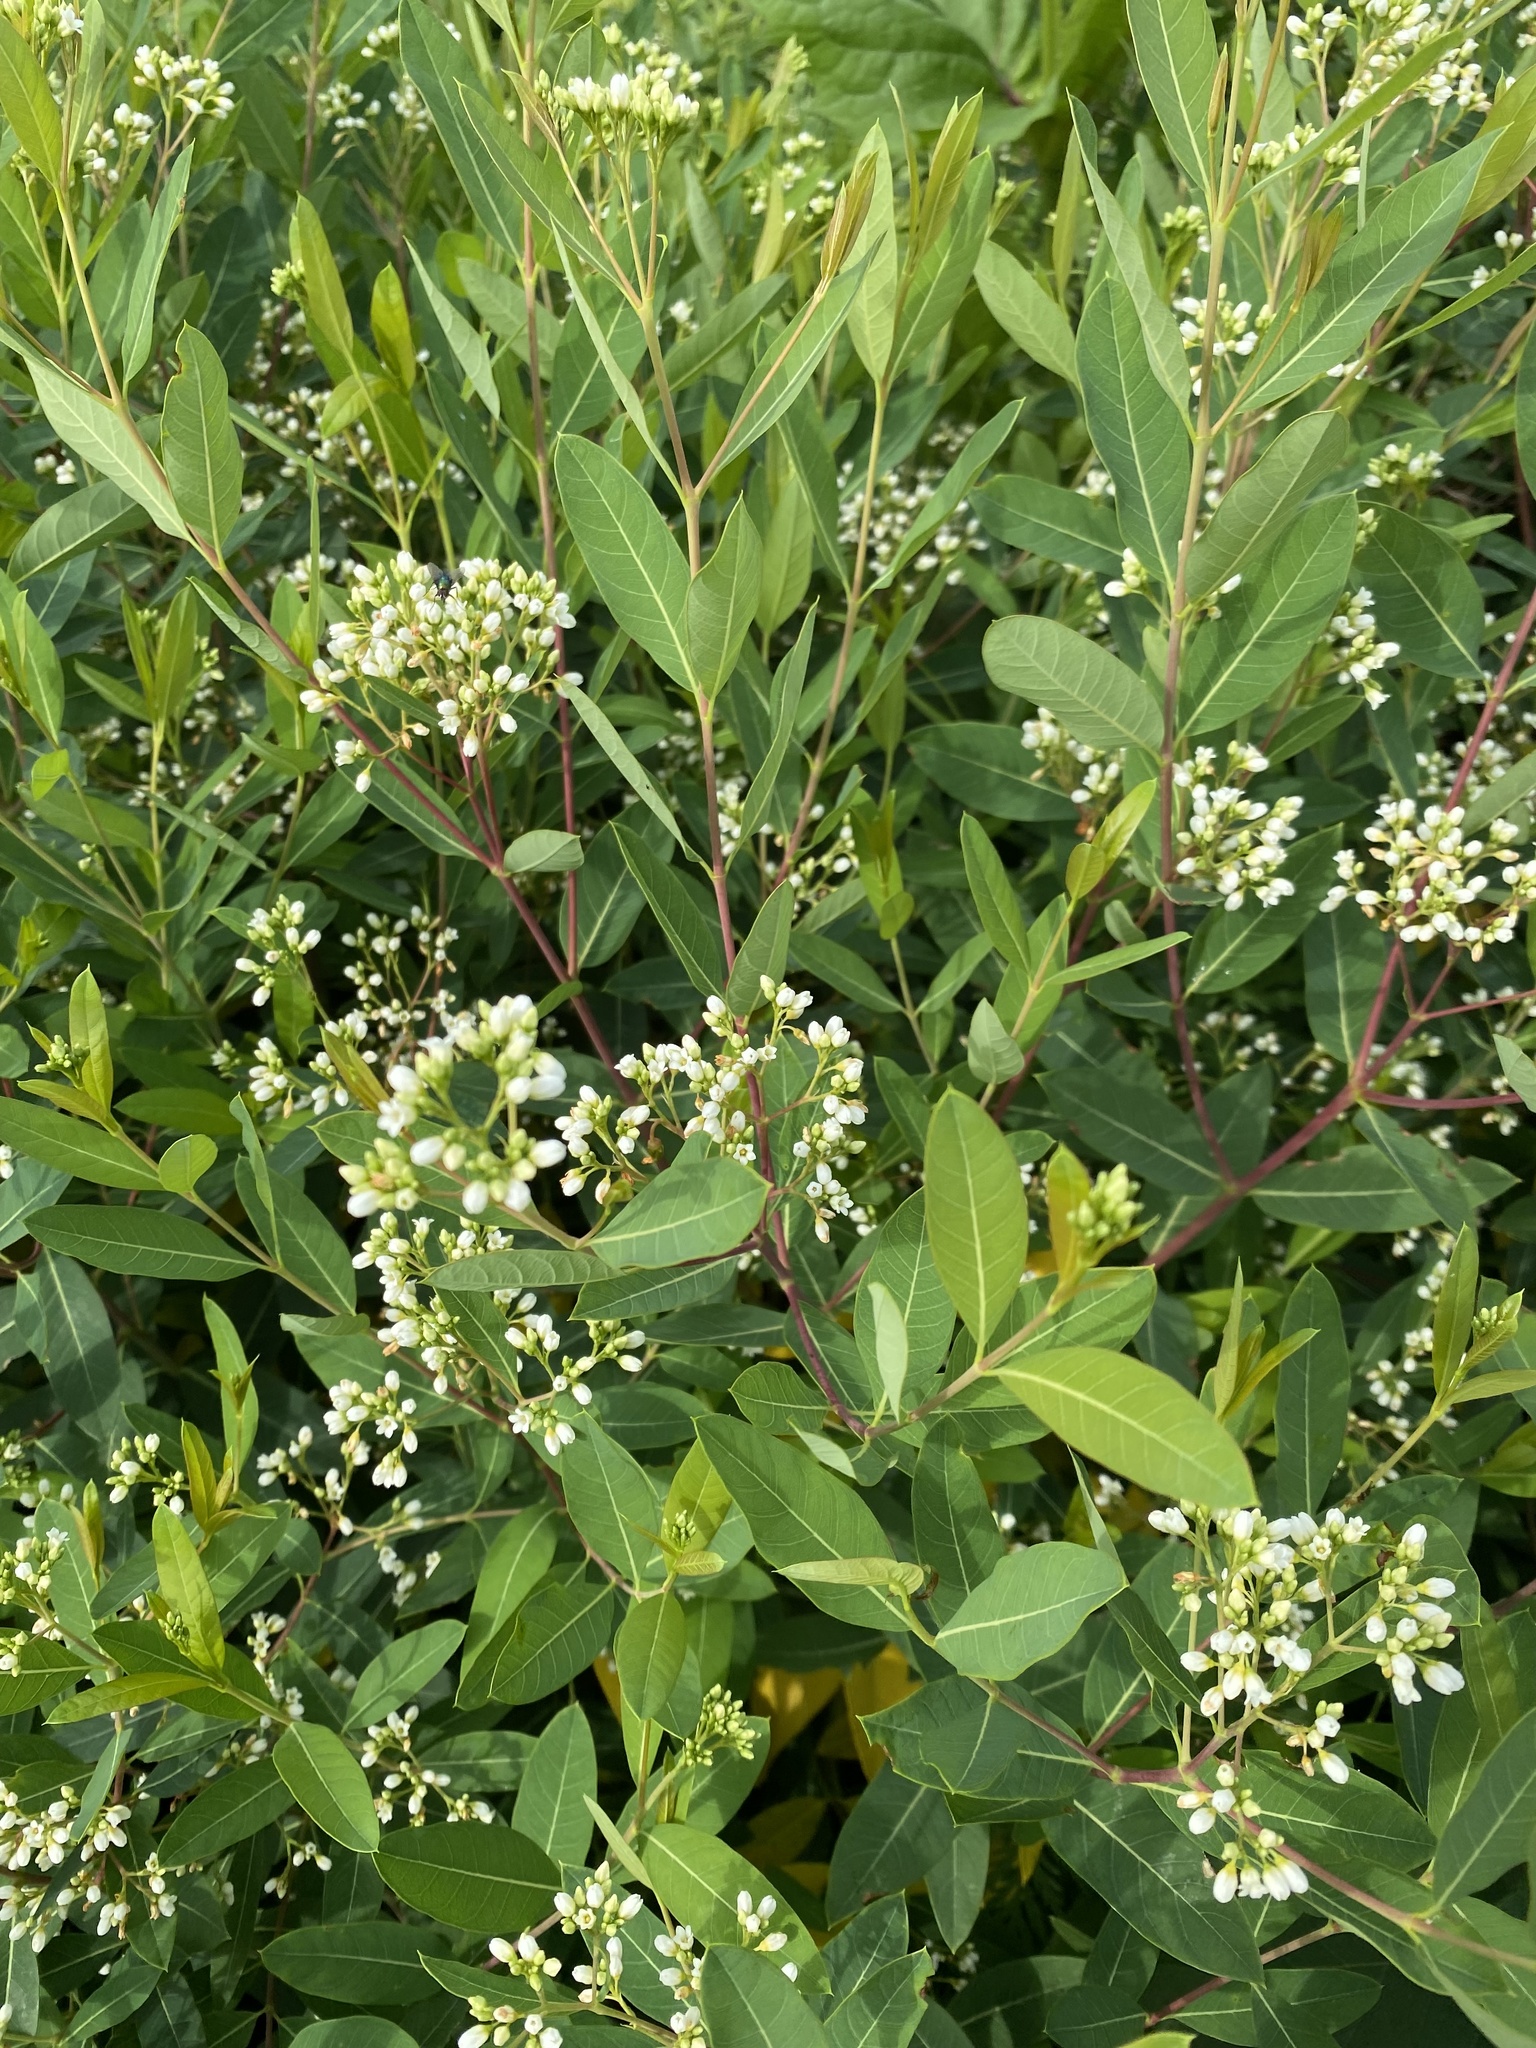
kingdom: Plantae
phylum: Tracheophyta
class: Magnoliopsida
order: Gentianales
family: Apocynaceae
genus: Apocynum
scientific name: Apocynum cannabinum
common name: Hemp dogbane
